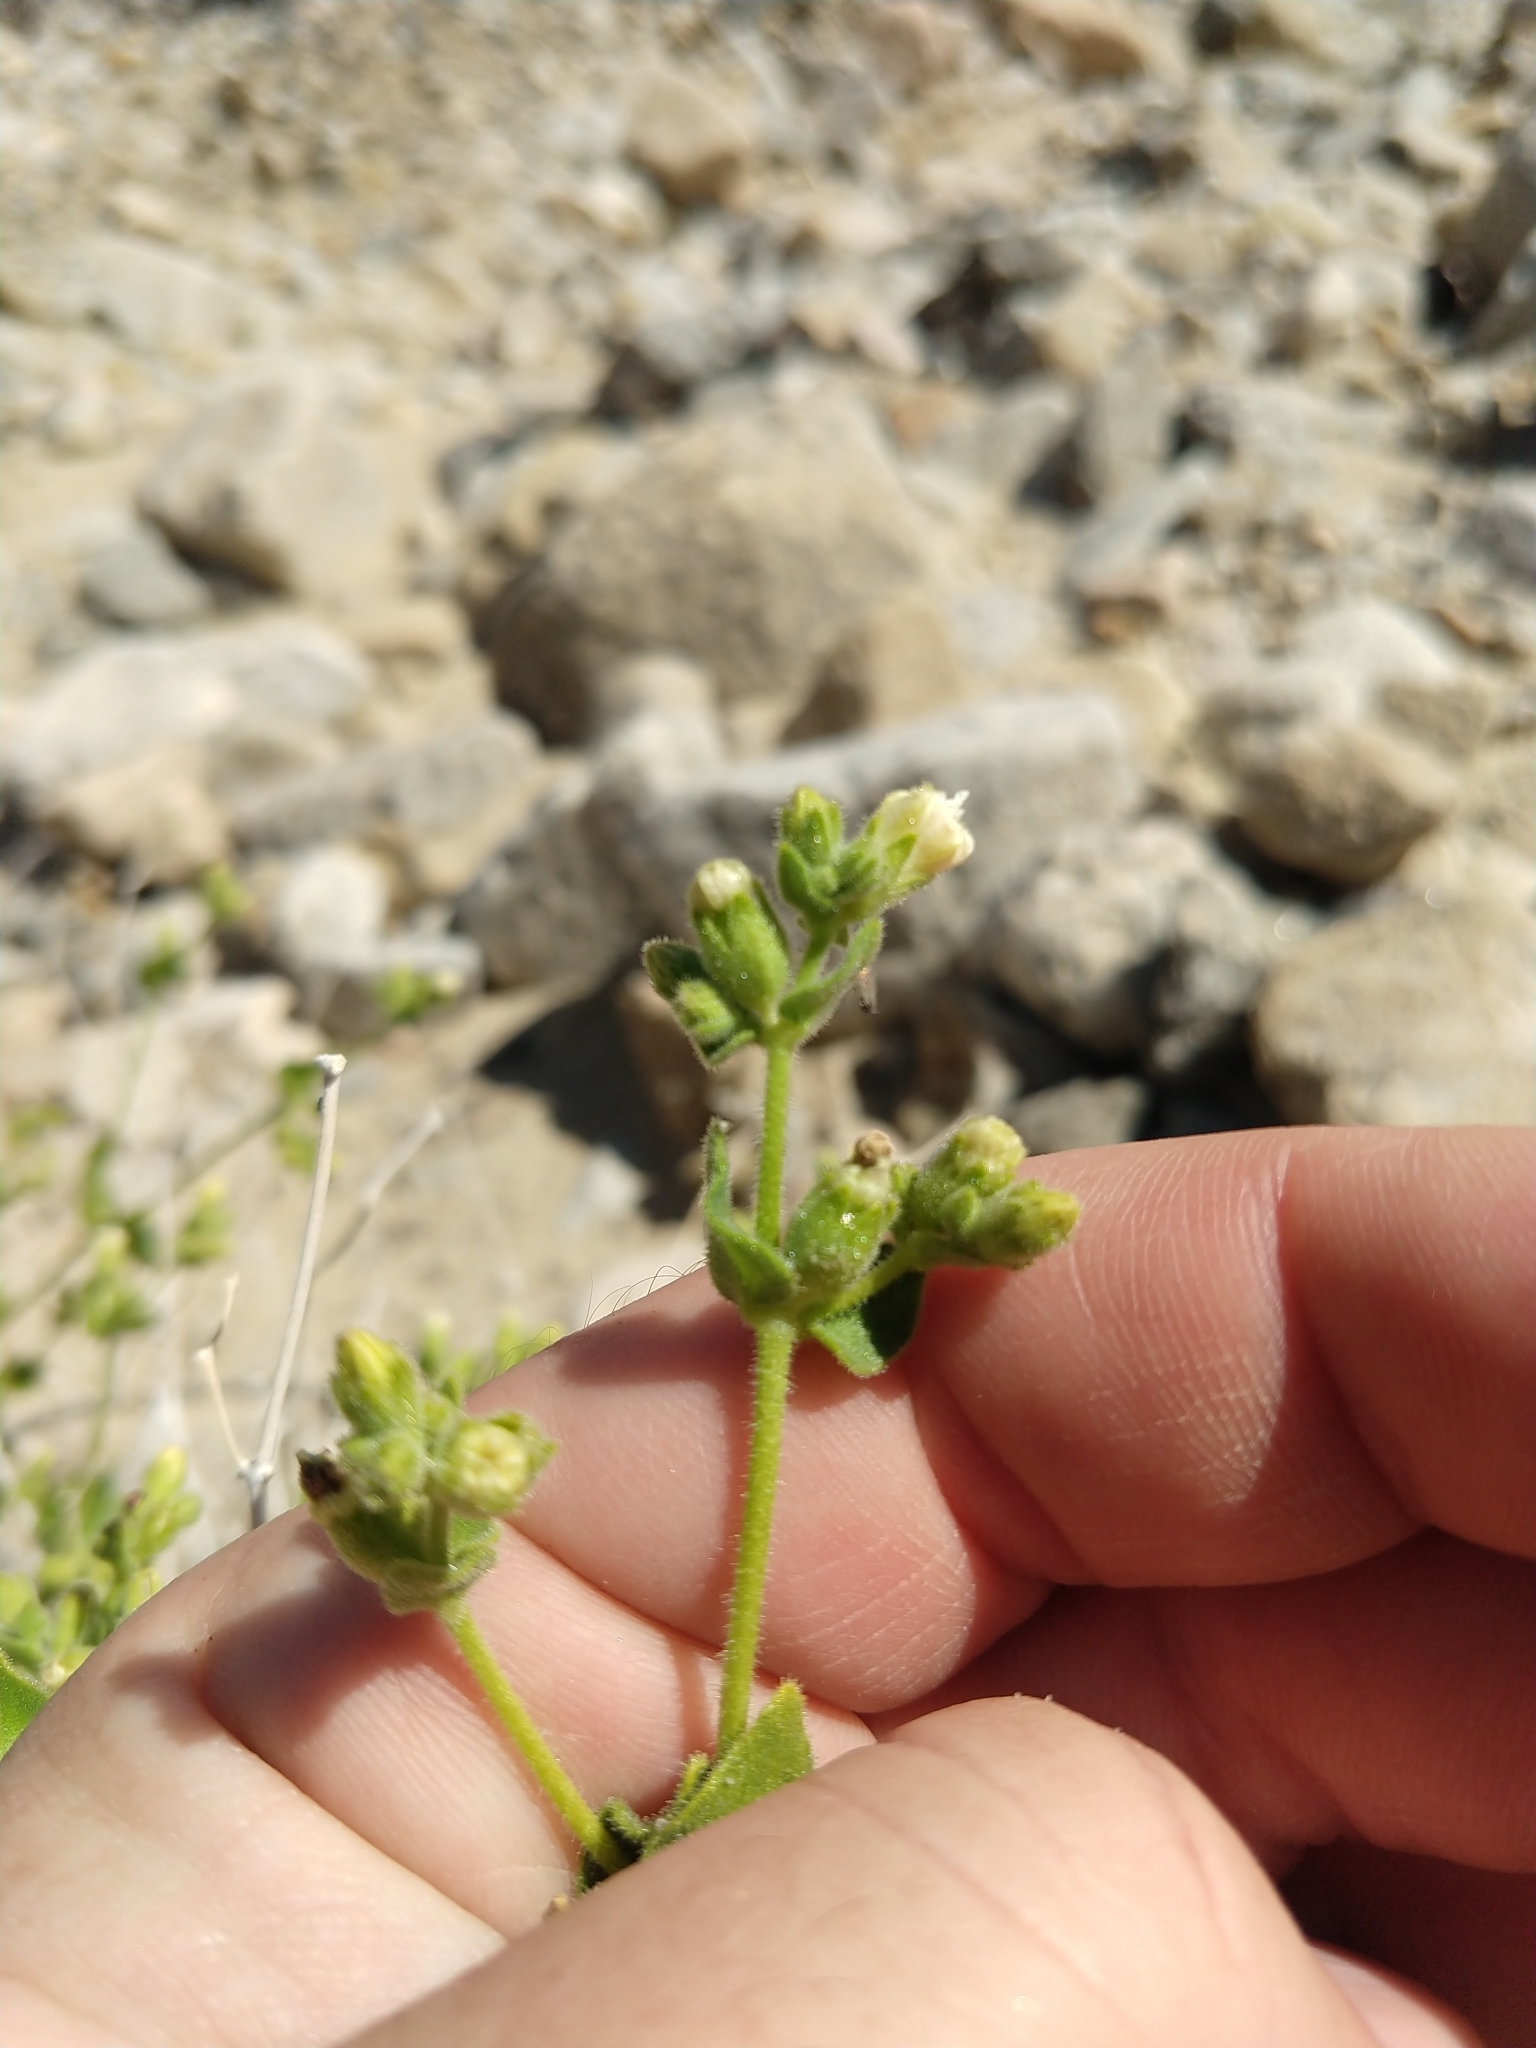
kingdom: Plantae
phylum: Tracheophyta
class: Magnoliopsida
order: Caryophyllales
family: Nyctaginaceae
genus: Mirabilis
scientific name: Mirabilis laevis
